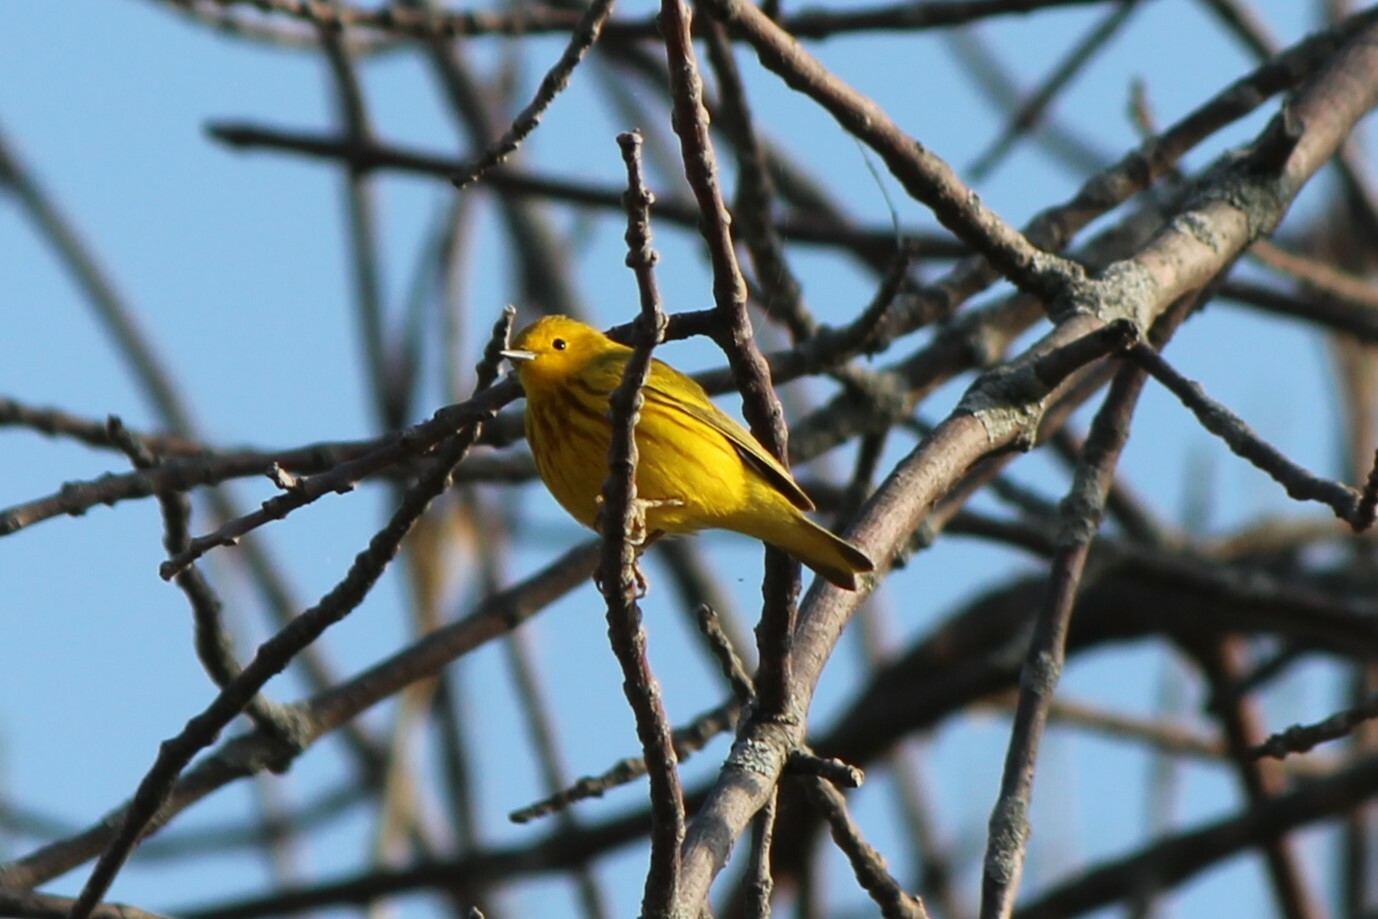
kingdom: Animalia
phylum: Chordata
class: Aves
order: Passeriformes
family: Parulidae
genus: Setophaga
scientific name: Setophaga petechia
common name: Yellow warbler
